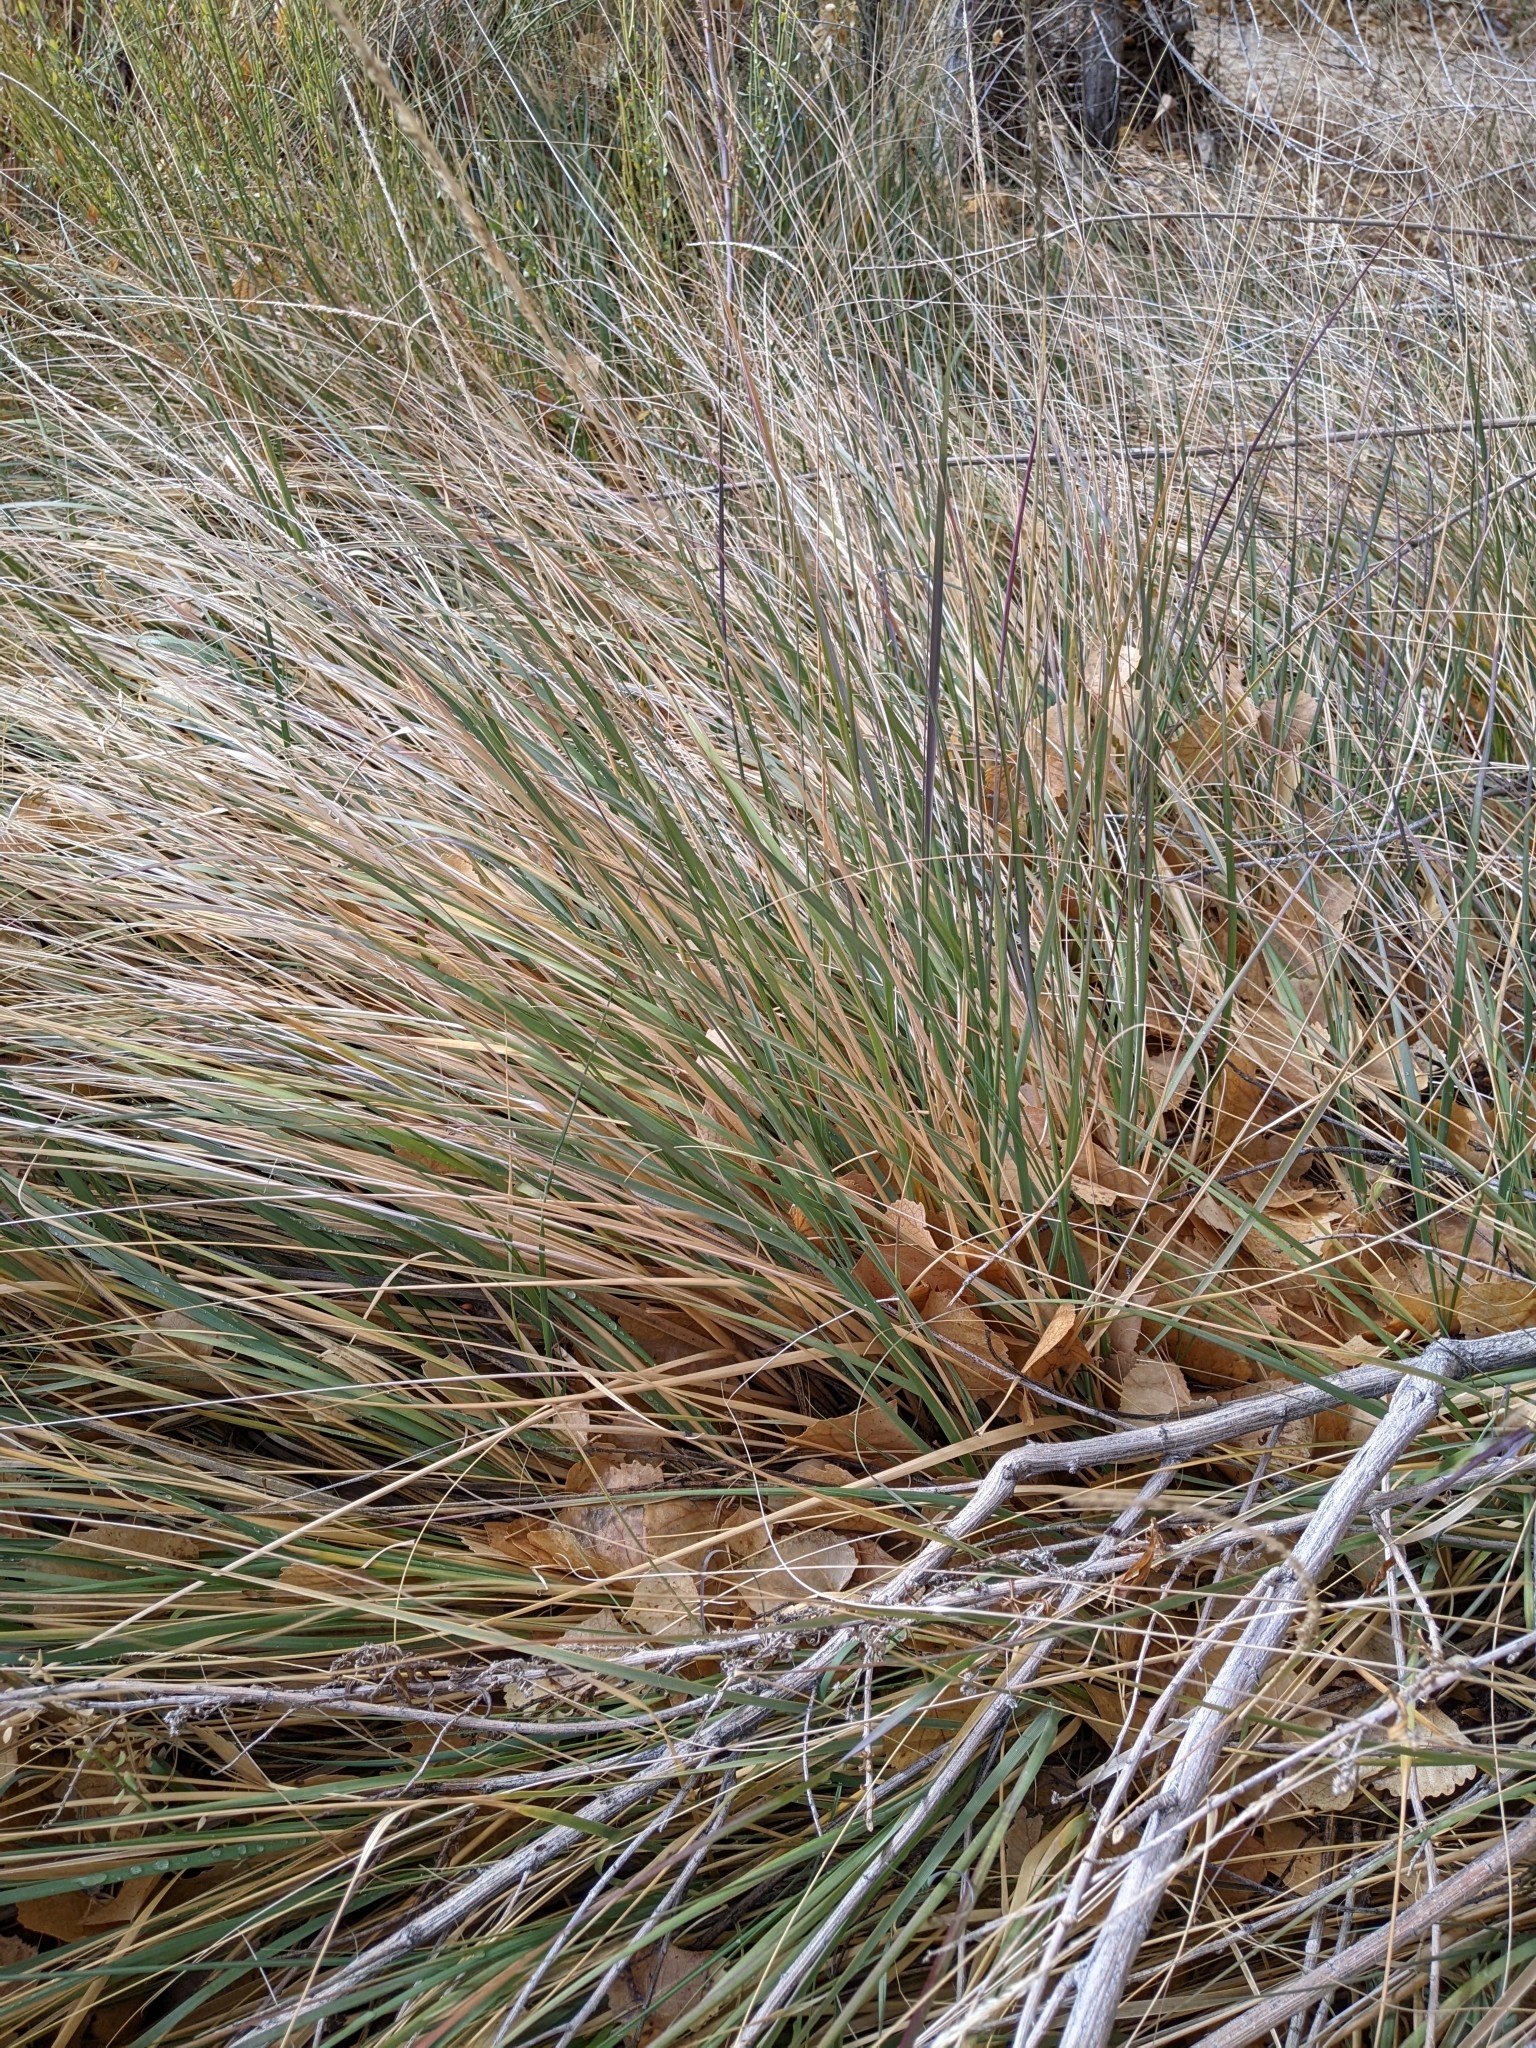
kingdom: Plantae
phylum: Tracheophyta
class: Liliopsida
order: Poales
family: Poaceae
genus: Muhlenbergia
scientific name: Muhlenbergia rigens
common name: Deer grass
